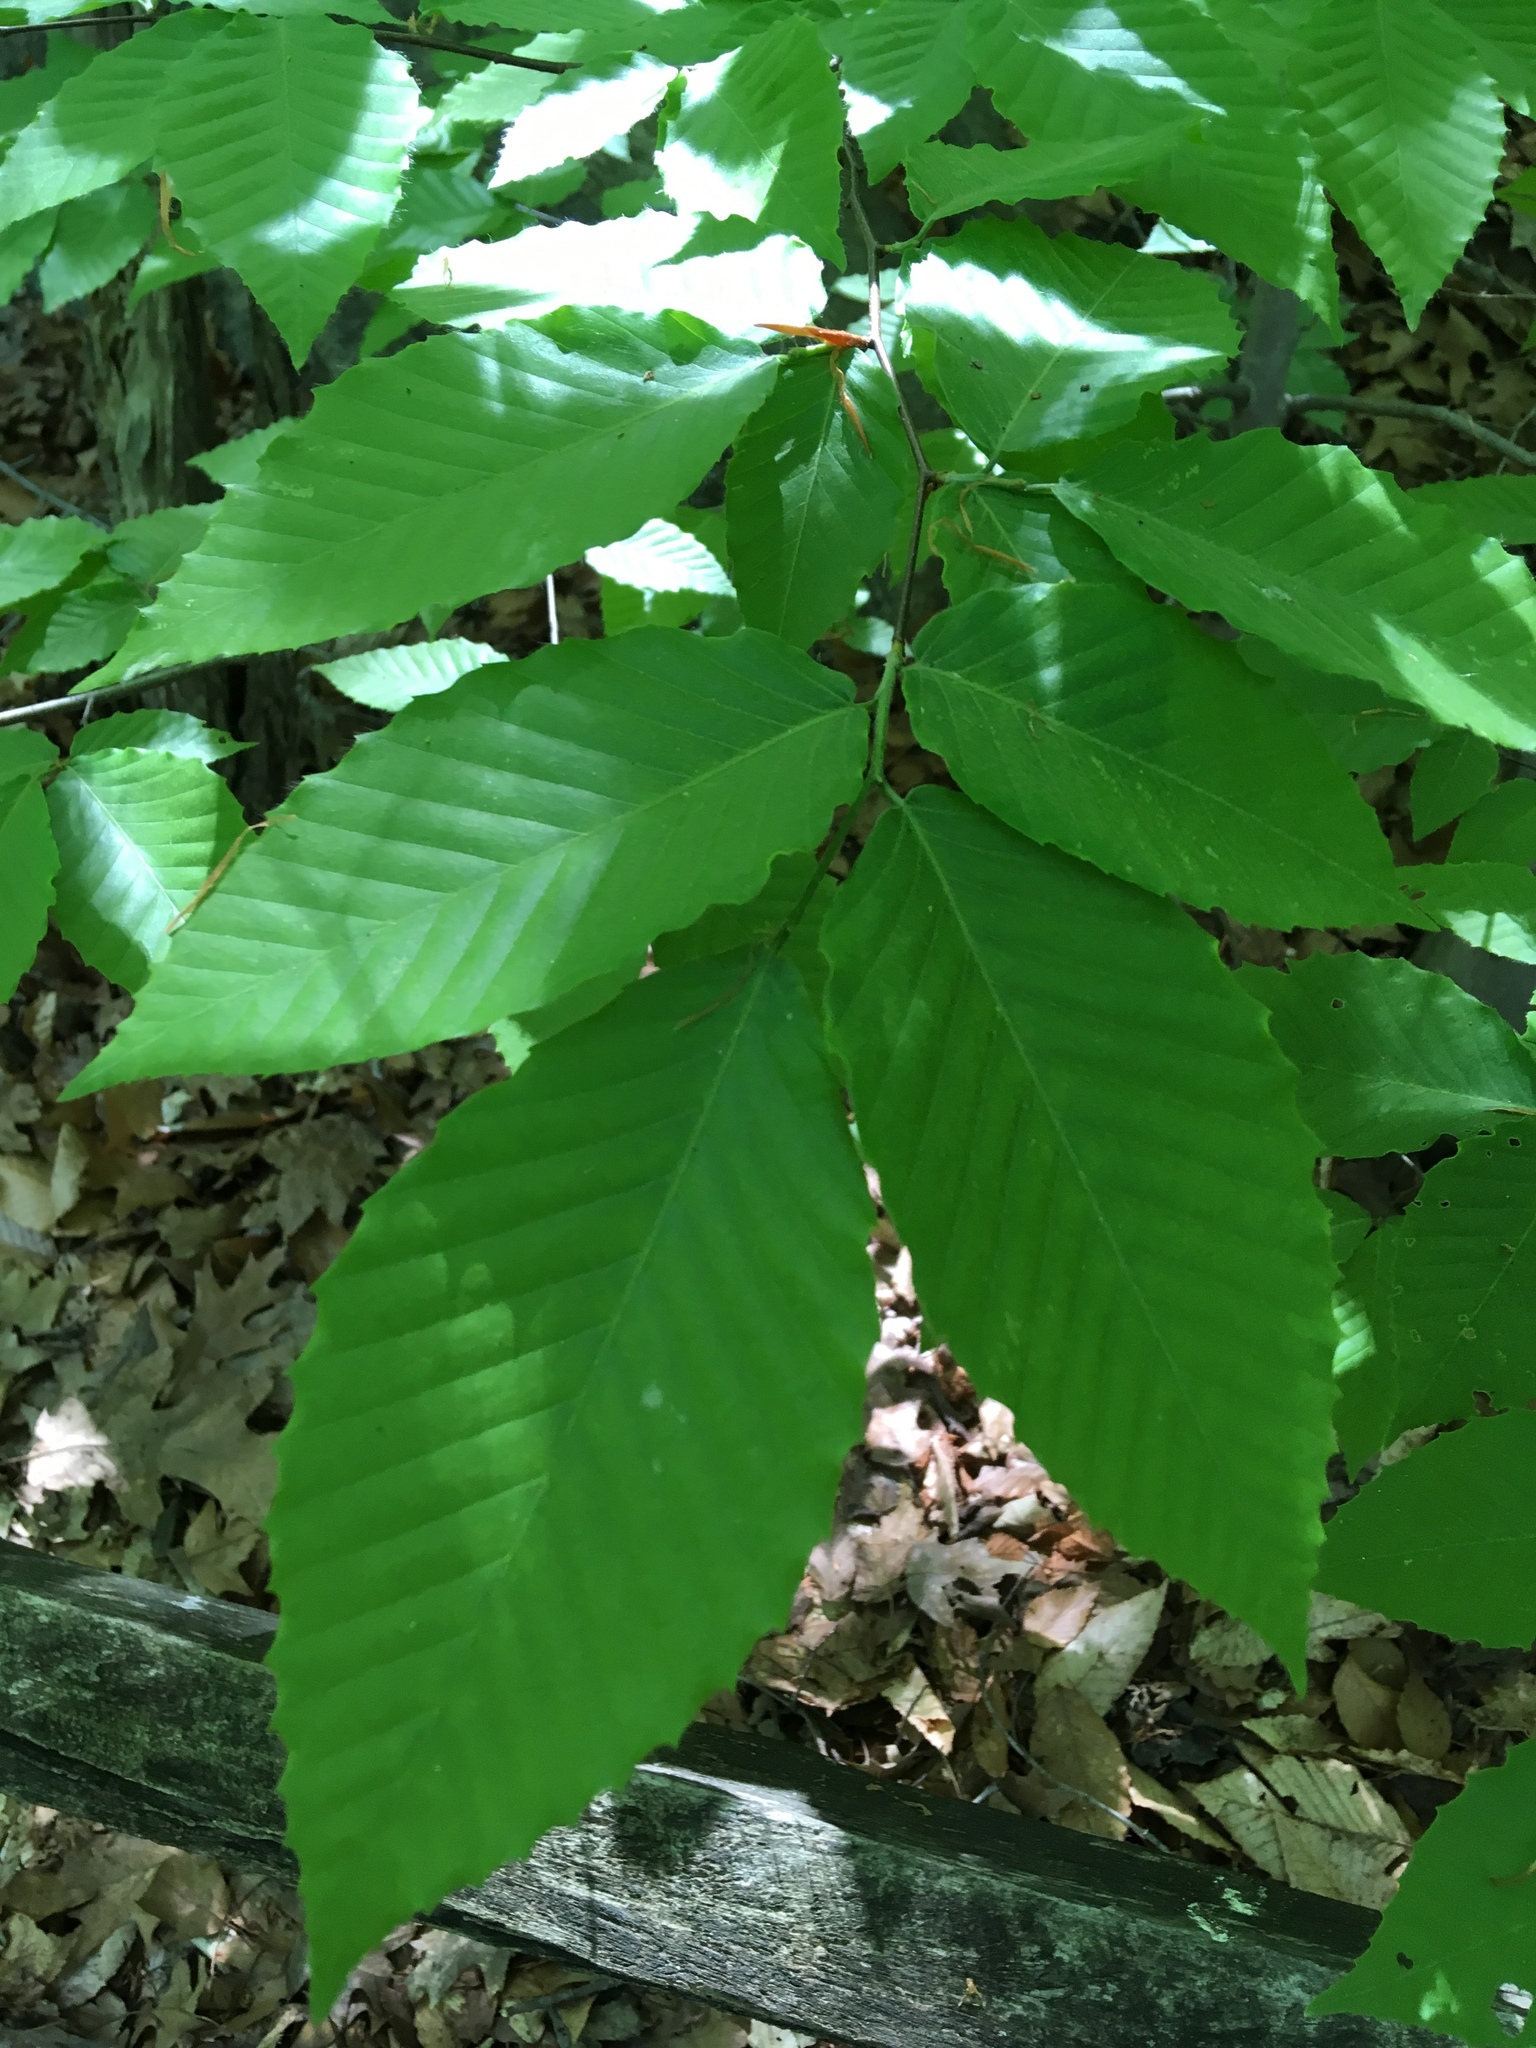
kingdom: Plantae
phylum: Tracheophyta
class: Magnoliopsida
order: Fagales
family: Fagaceae
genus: Fagus
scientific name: Fagus grandifolia
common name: American beech
